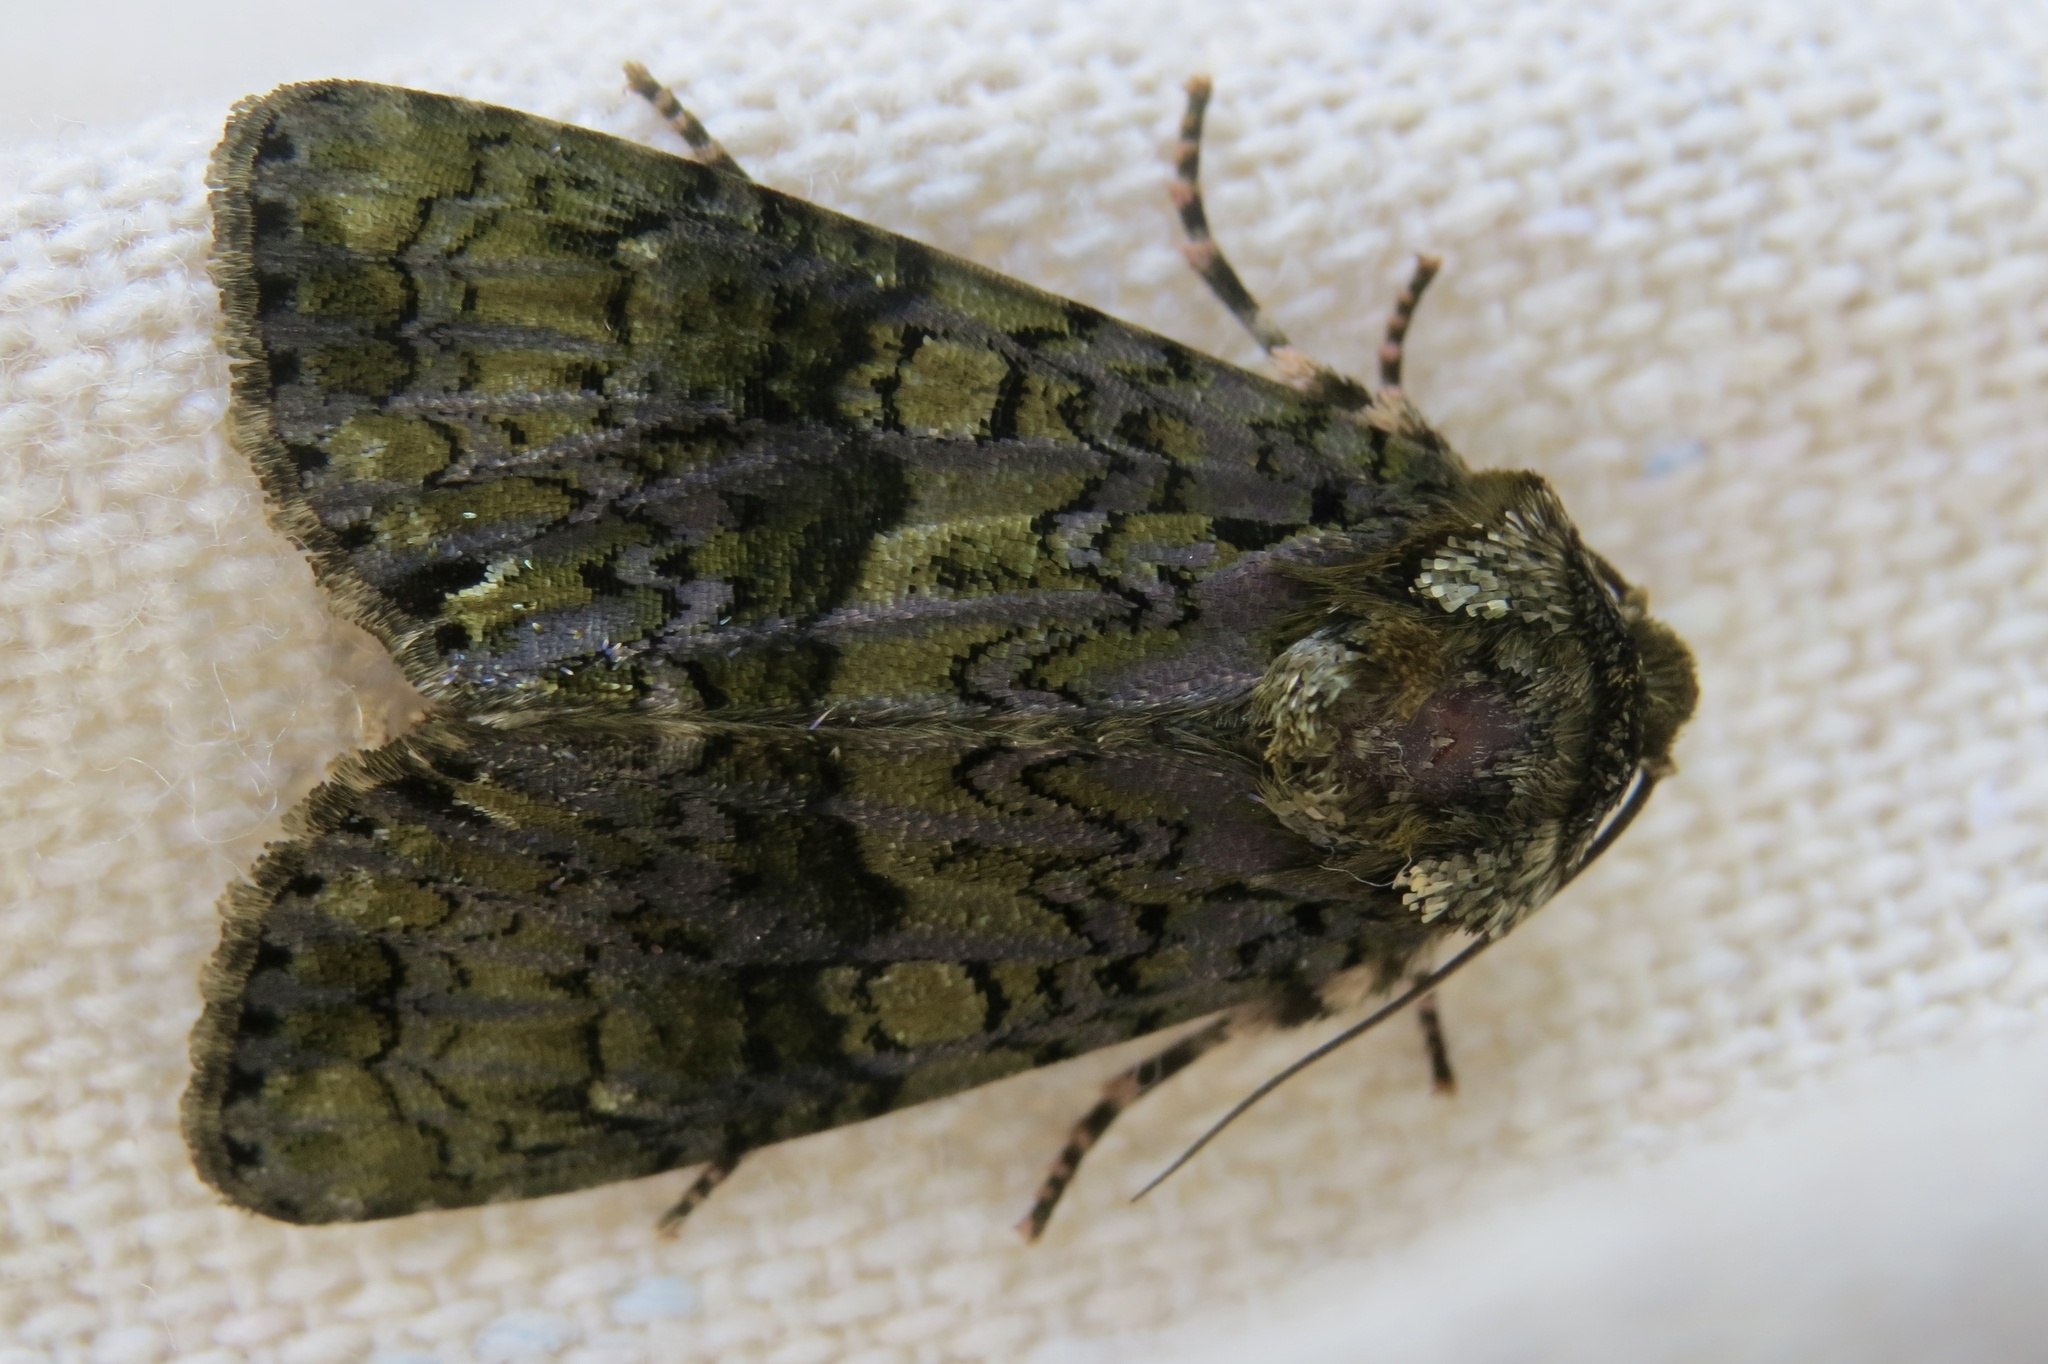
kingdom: Animalia
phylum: Arthropoda
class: Insecta
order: Lepidoptera
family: Noctuidae
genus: Craniophora
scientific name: Craniophora ligustri
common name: Coronet
